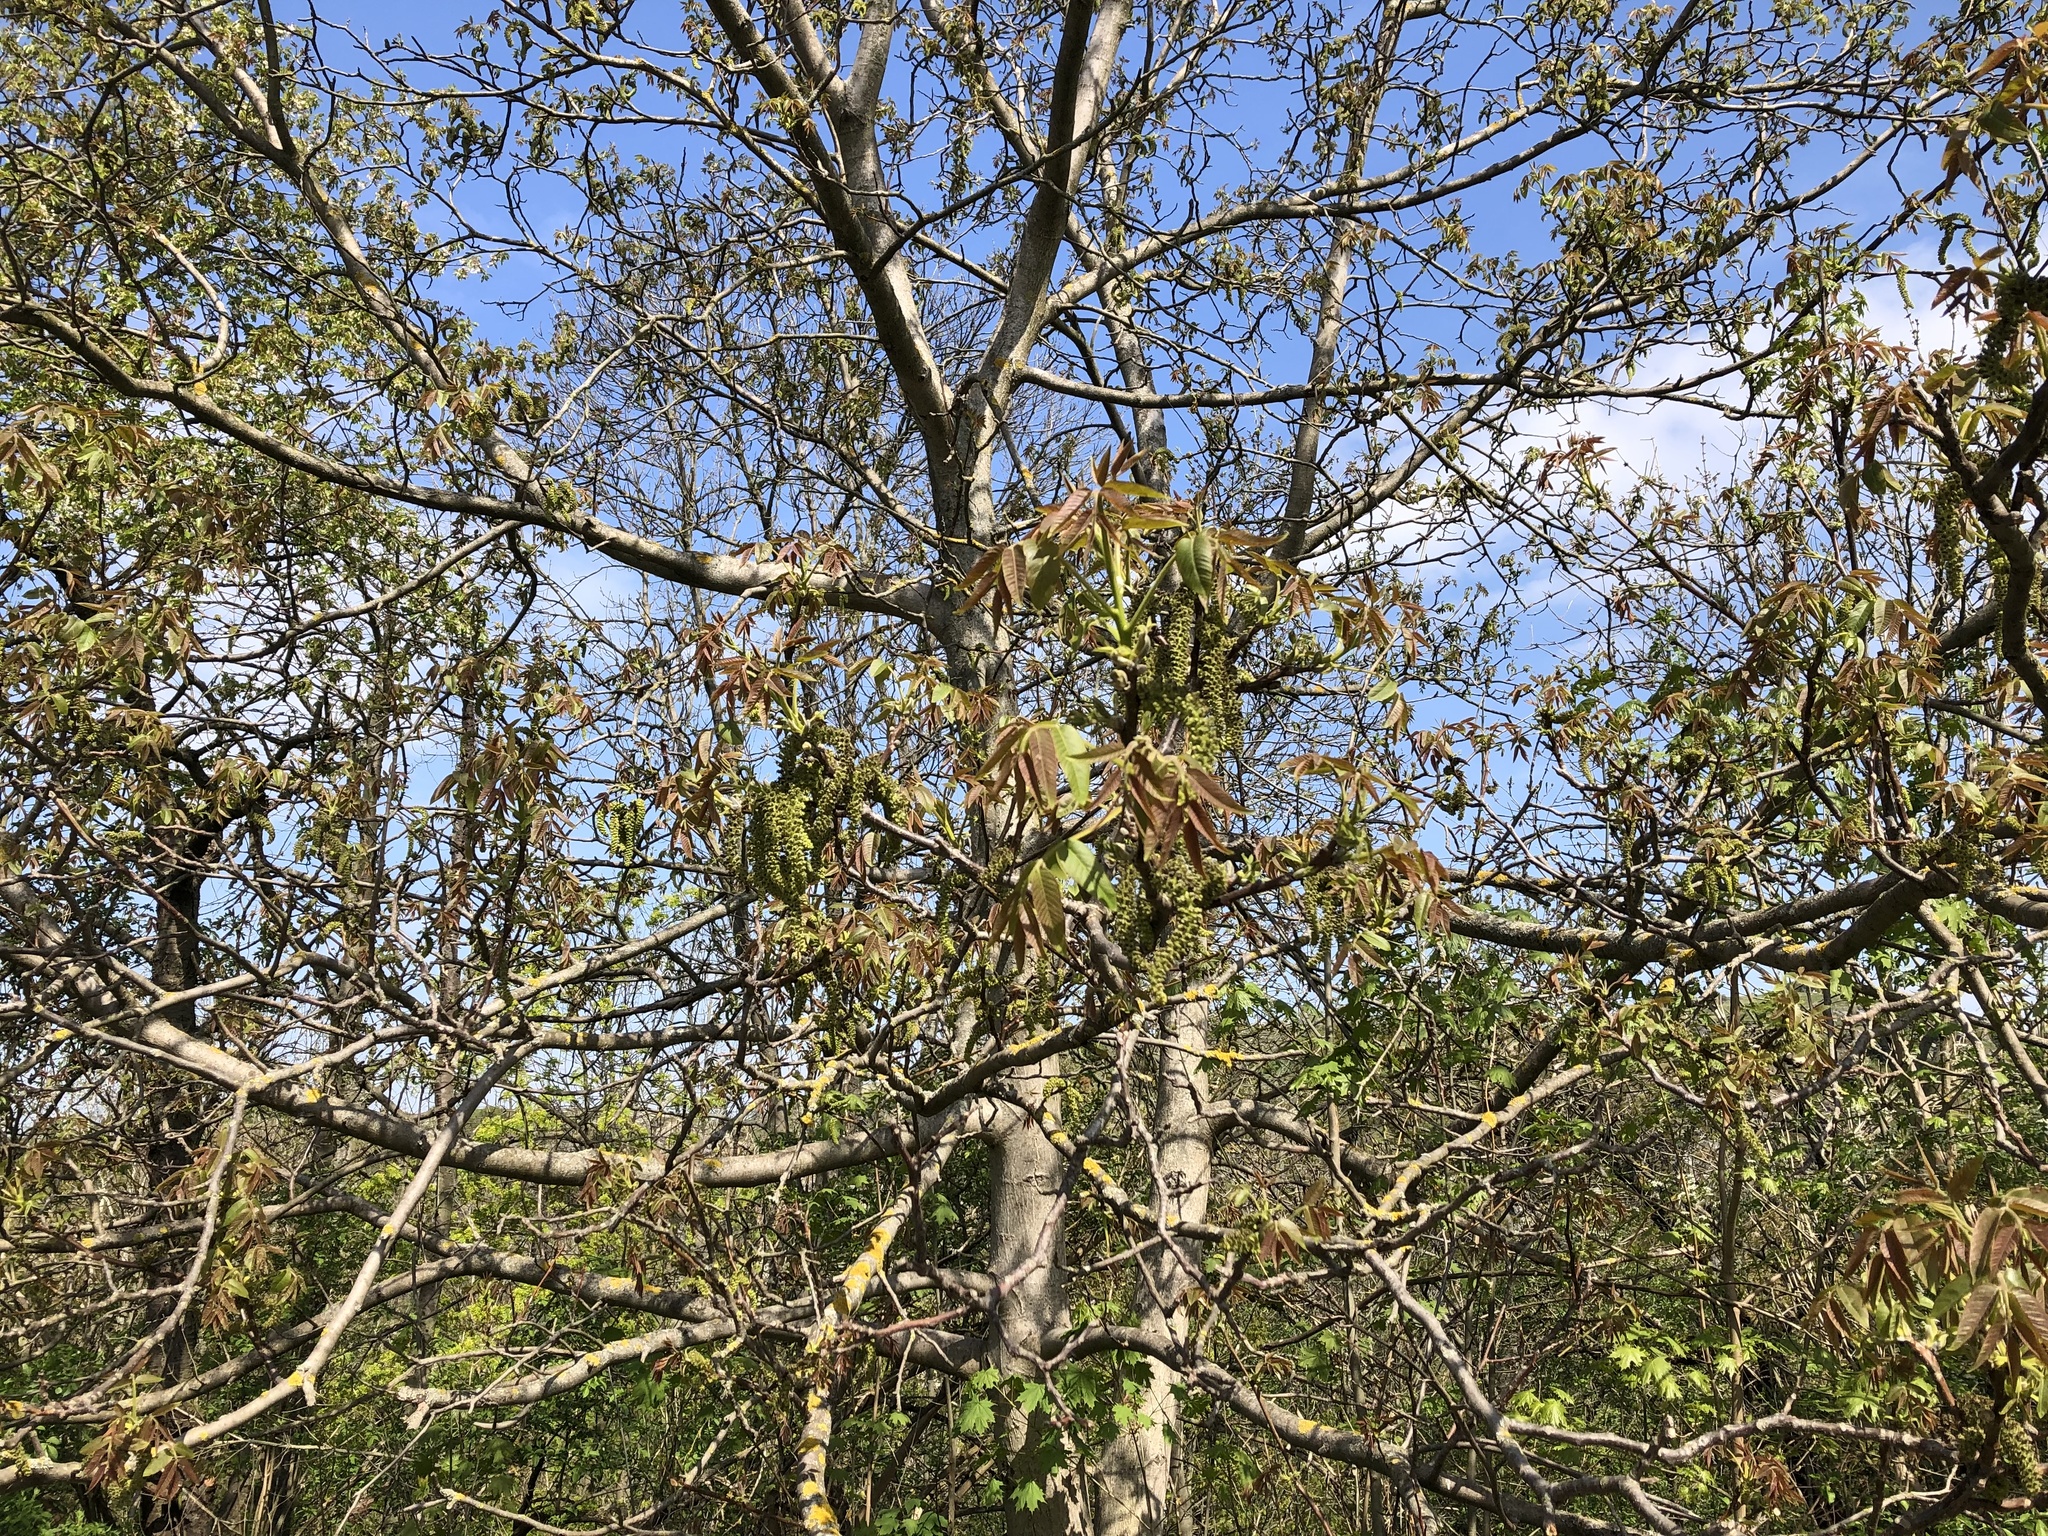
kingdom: Plantae
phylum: Tracheophyta
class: Magnoliopsida
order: Fagales
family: Juglandaceae
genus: Juglans
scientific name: Juglans regia
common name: Walnut
